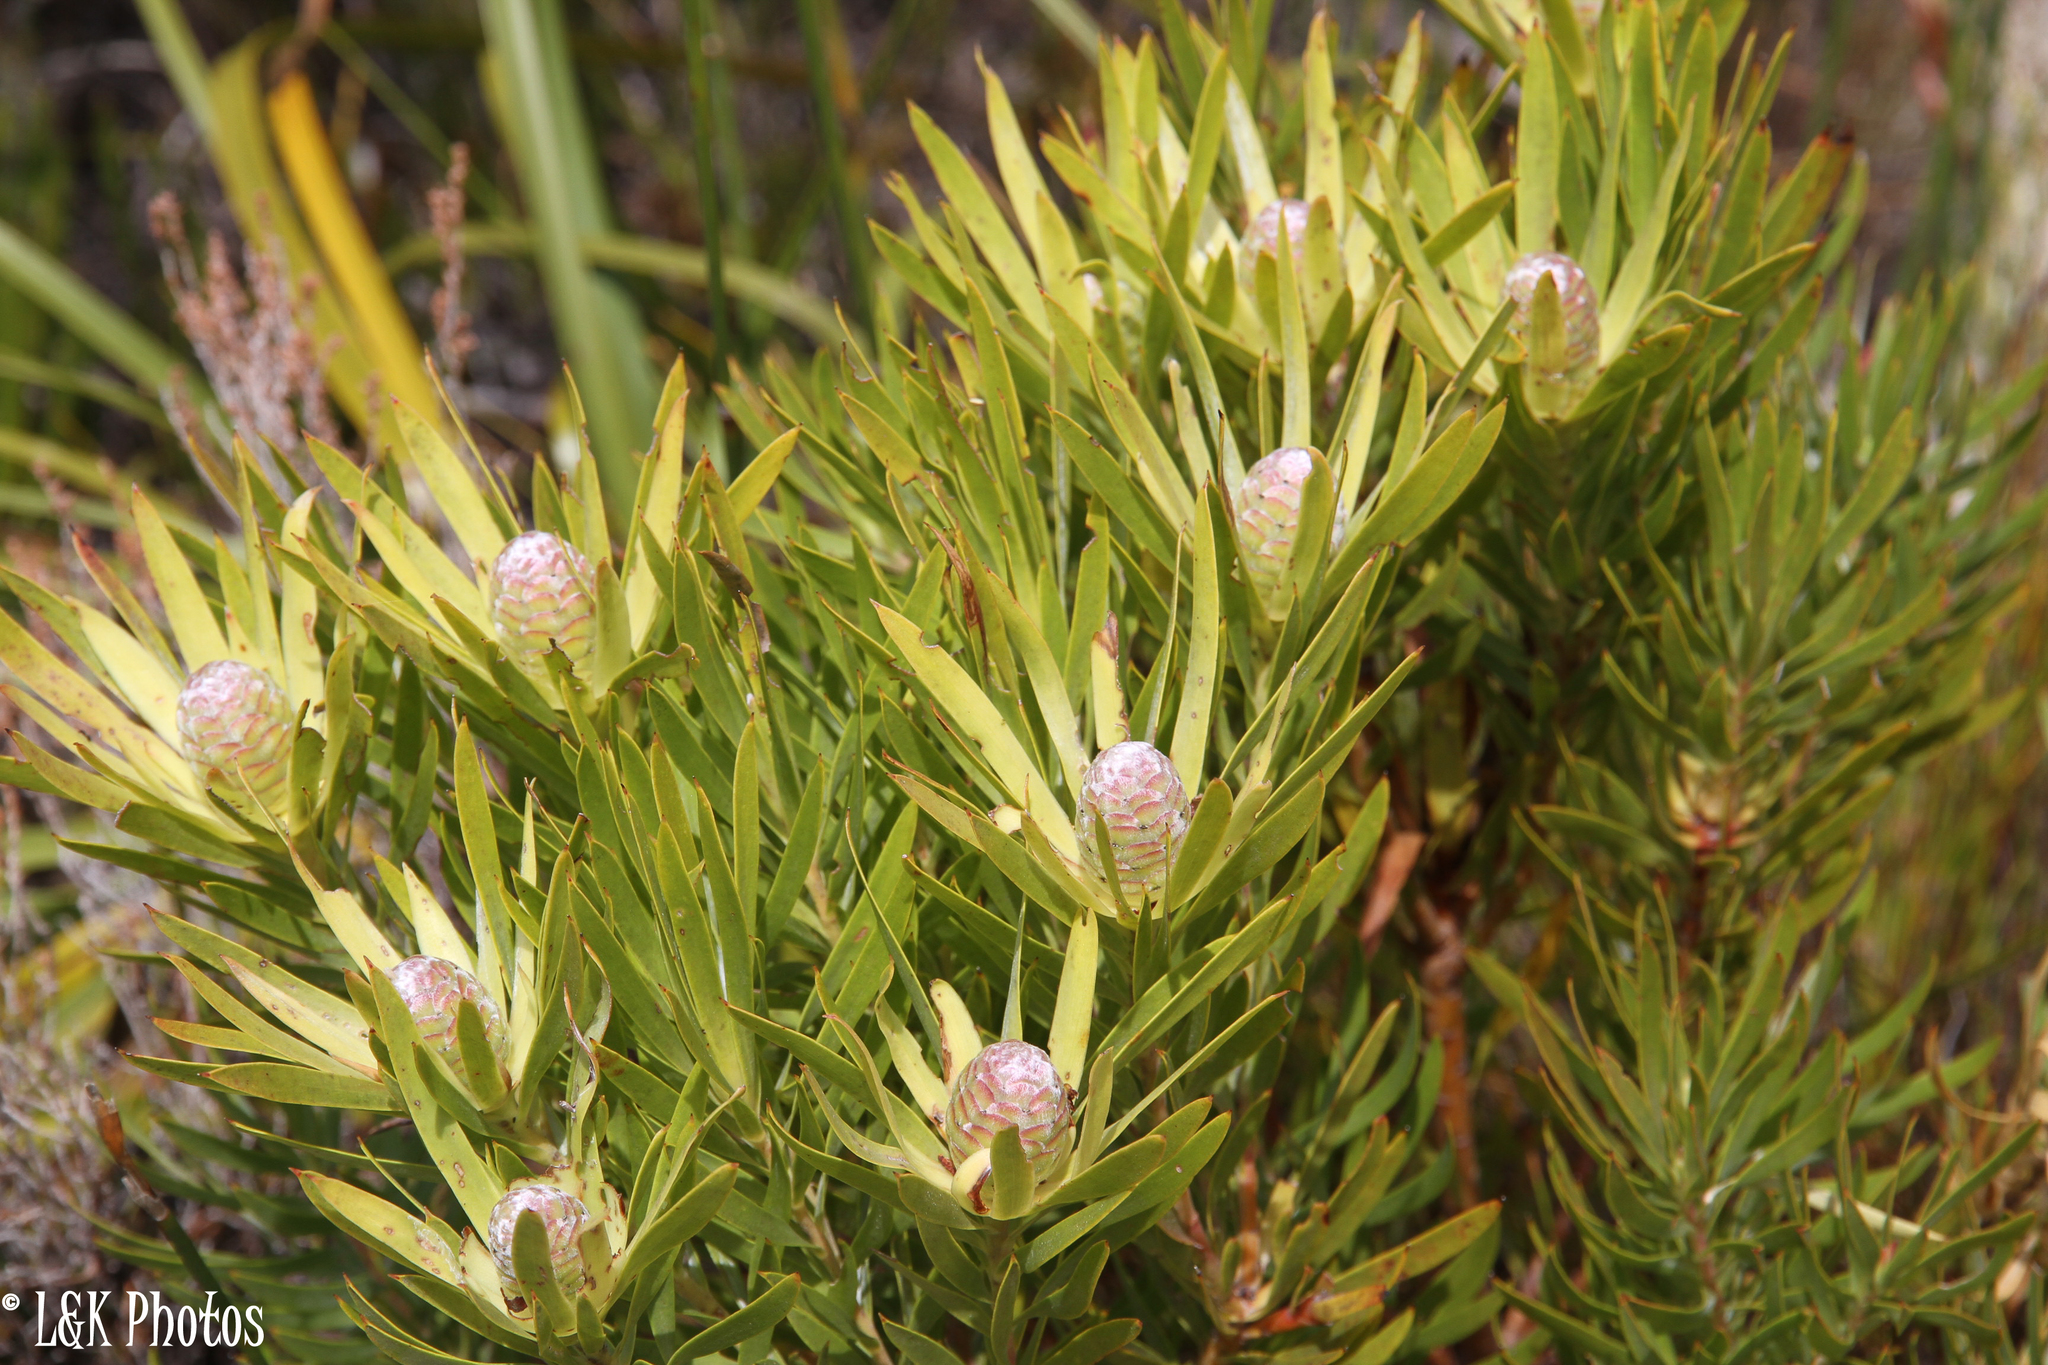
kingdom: Plantae
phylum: Tracheophyta
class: Magnoliopsida
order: Proteales
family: Proteaceae
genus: Leucadendron
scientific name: Leucadendron xanthoconus
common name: Sickle-leaf conebush
